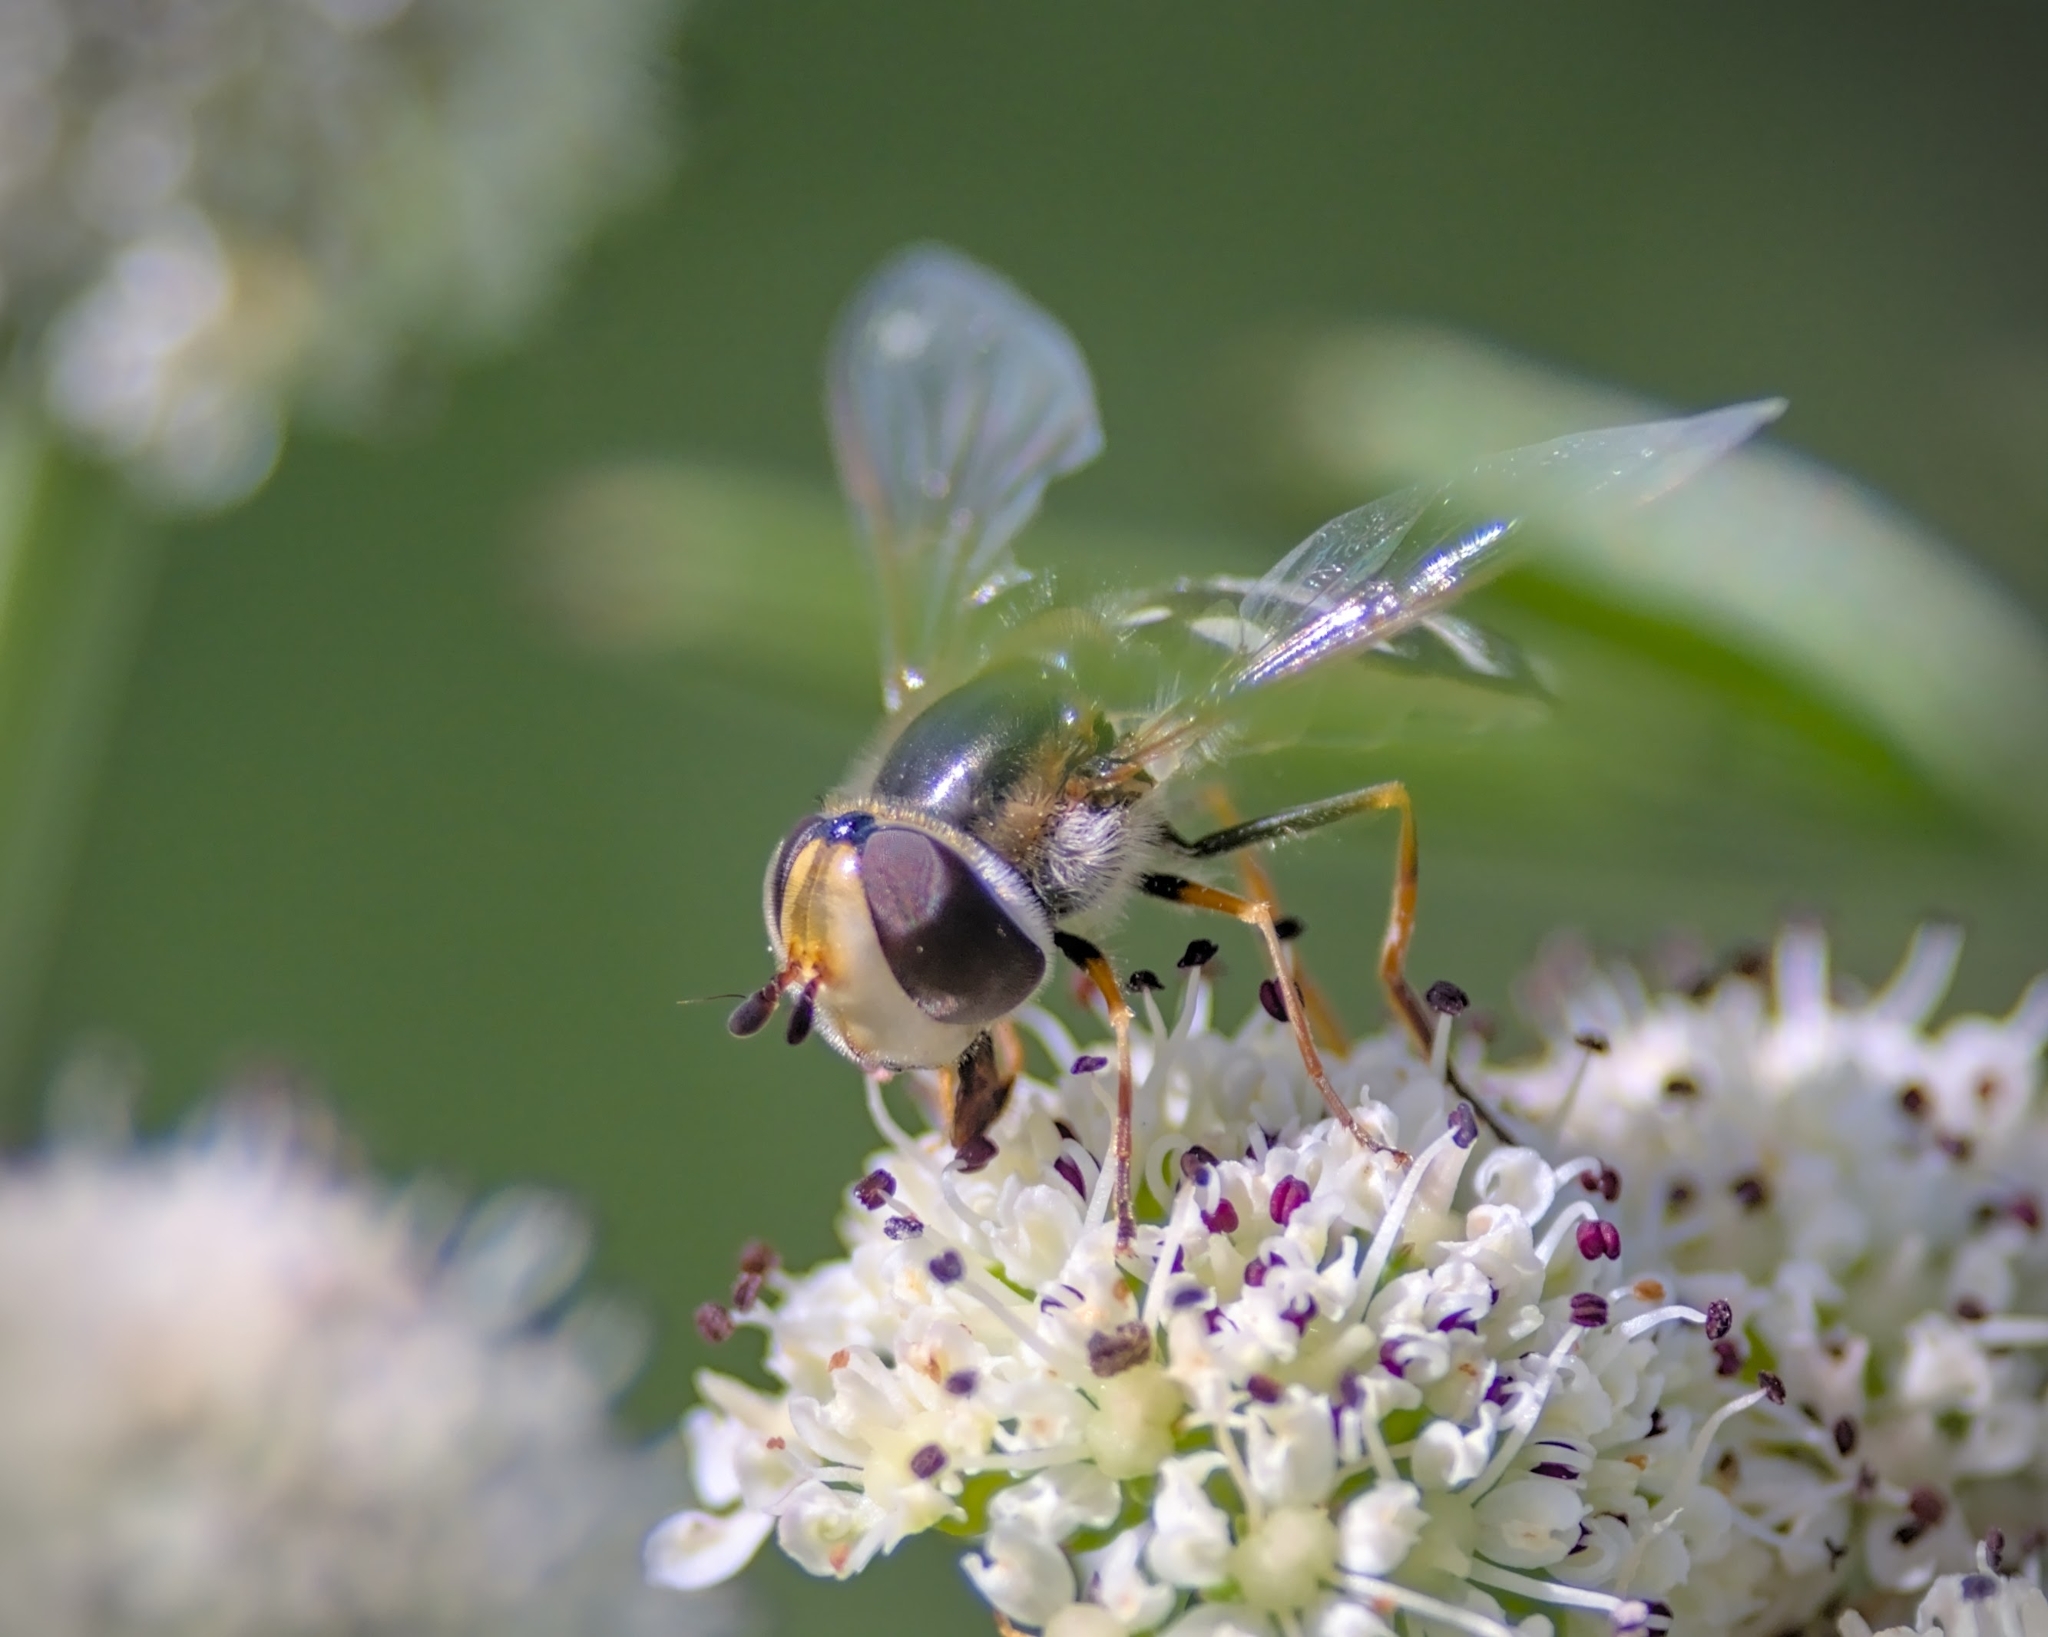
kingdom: Animalia
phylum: Arthropoda
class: Insecta
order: Diptera
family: Syrphidae
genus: Scaeva
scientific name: Scaeva pyrastri
